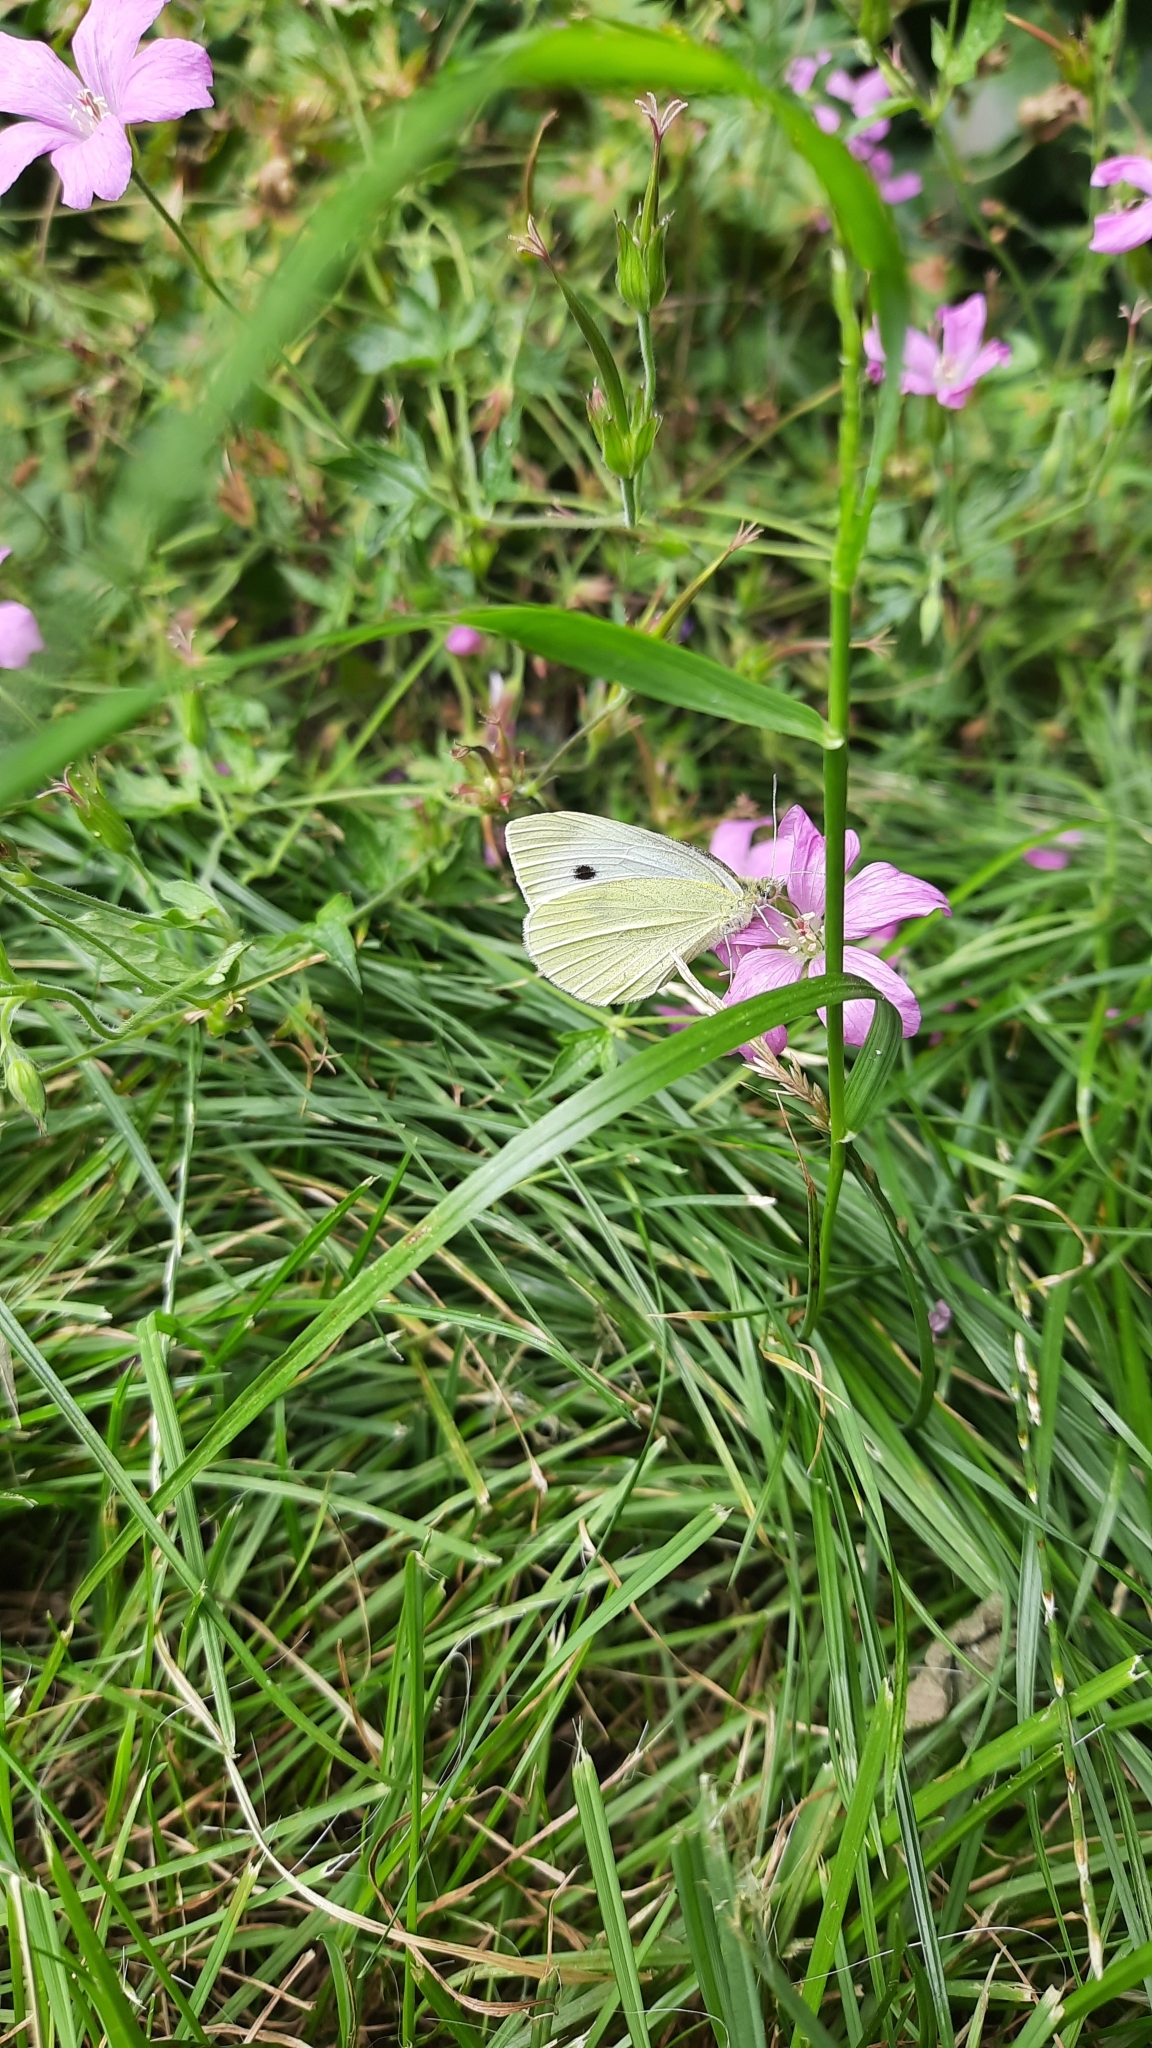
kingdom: Animalia
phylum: Arthropoda
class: Insecta
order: Lepidoptera
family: Pieridae
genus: Pieris
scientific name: Pieris rapae
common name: Small white
